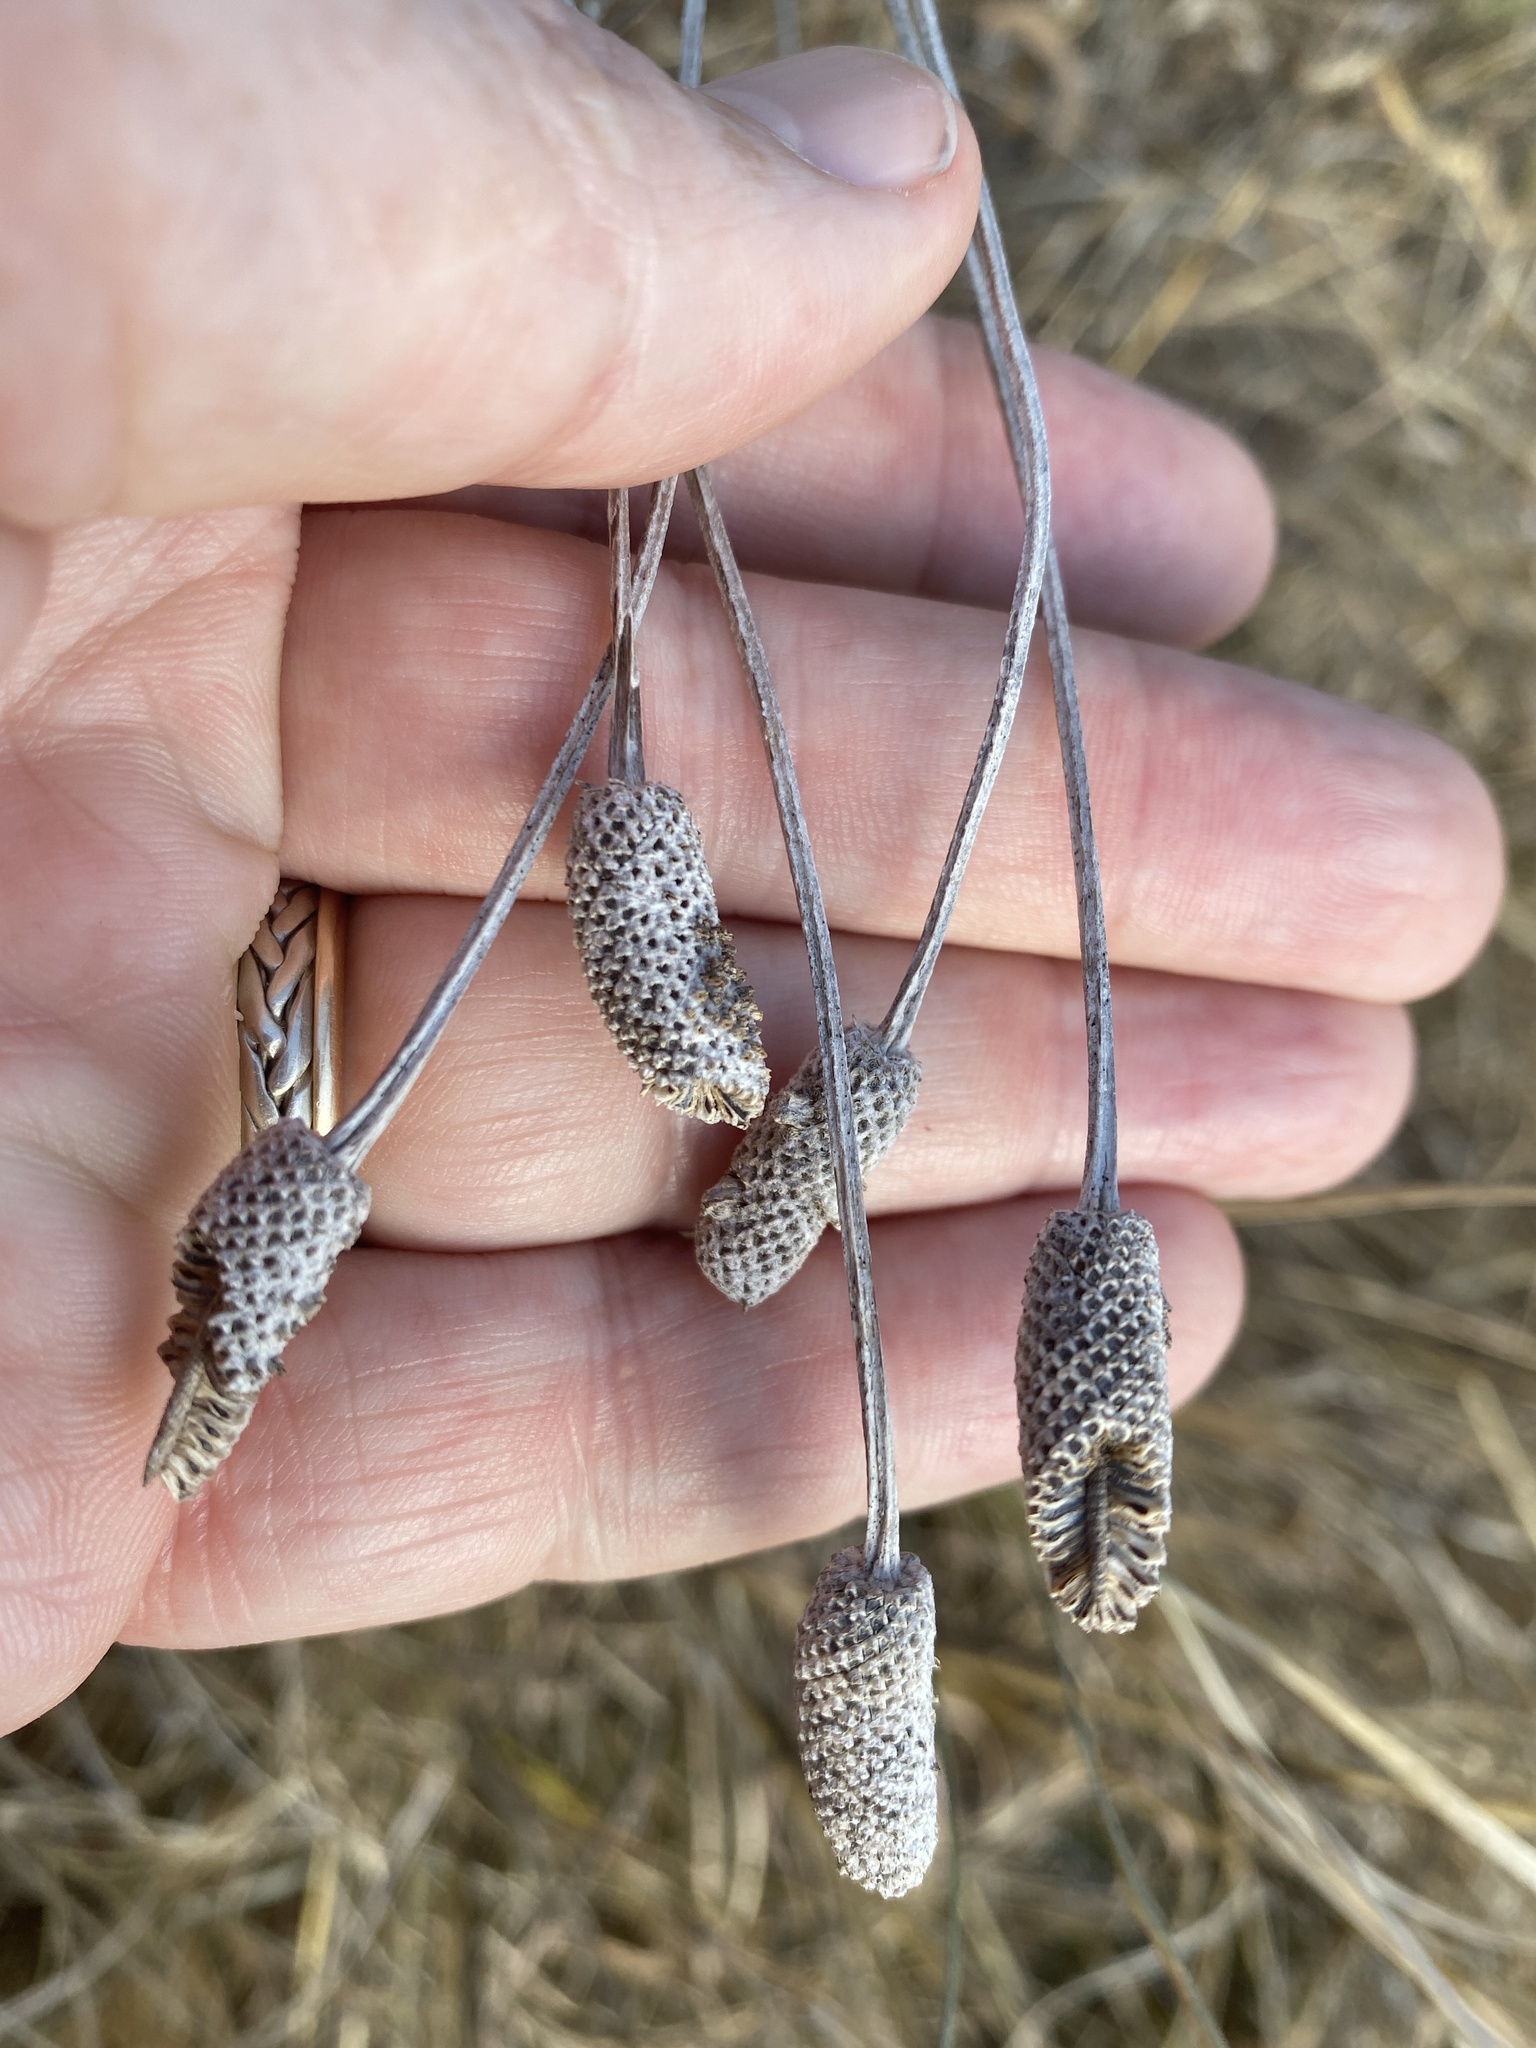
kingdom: Plantae
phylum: Tracheophyta
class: Magnoliopsida
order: Asterales
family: Asteraceae
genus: Ratibida
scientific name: Ratibida columnifera
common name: Prairie coneflower
